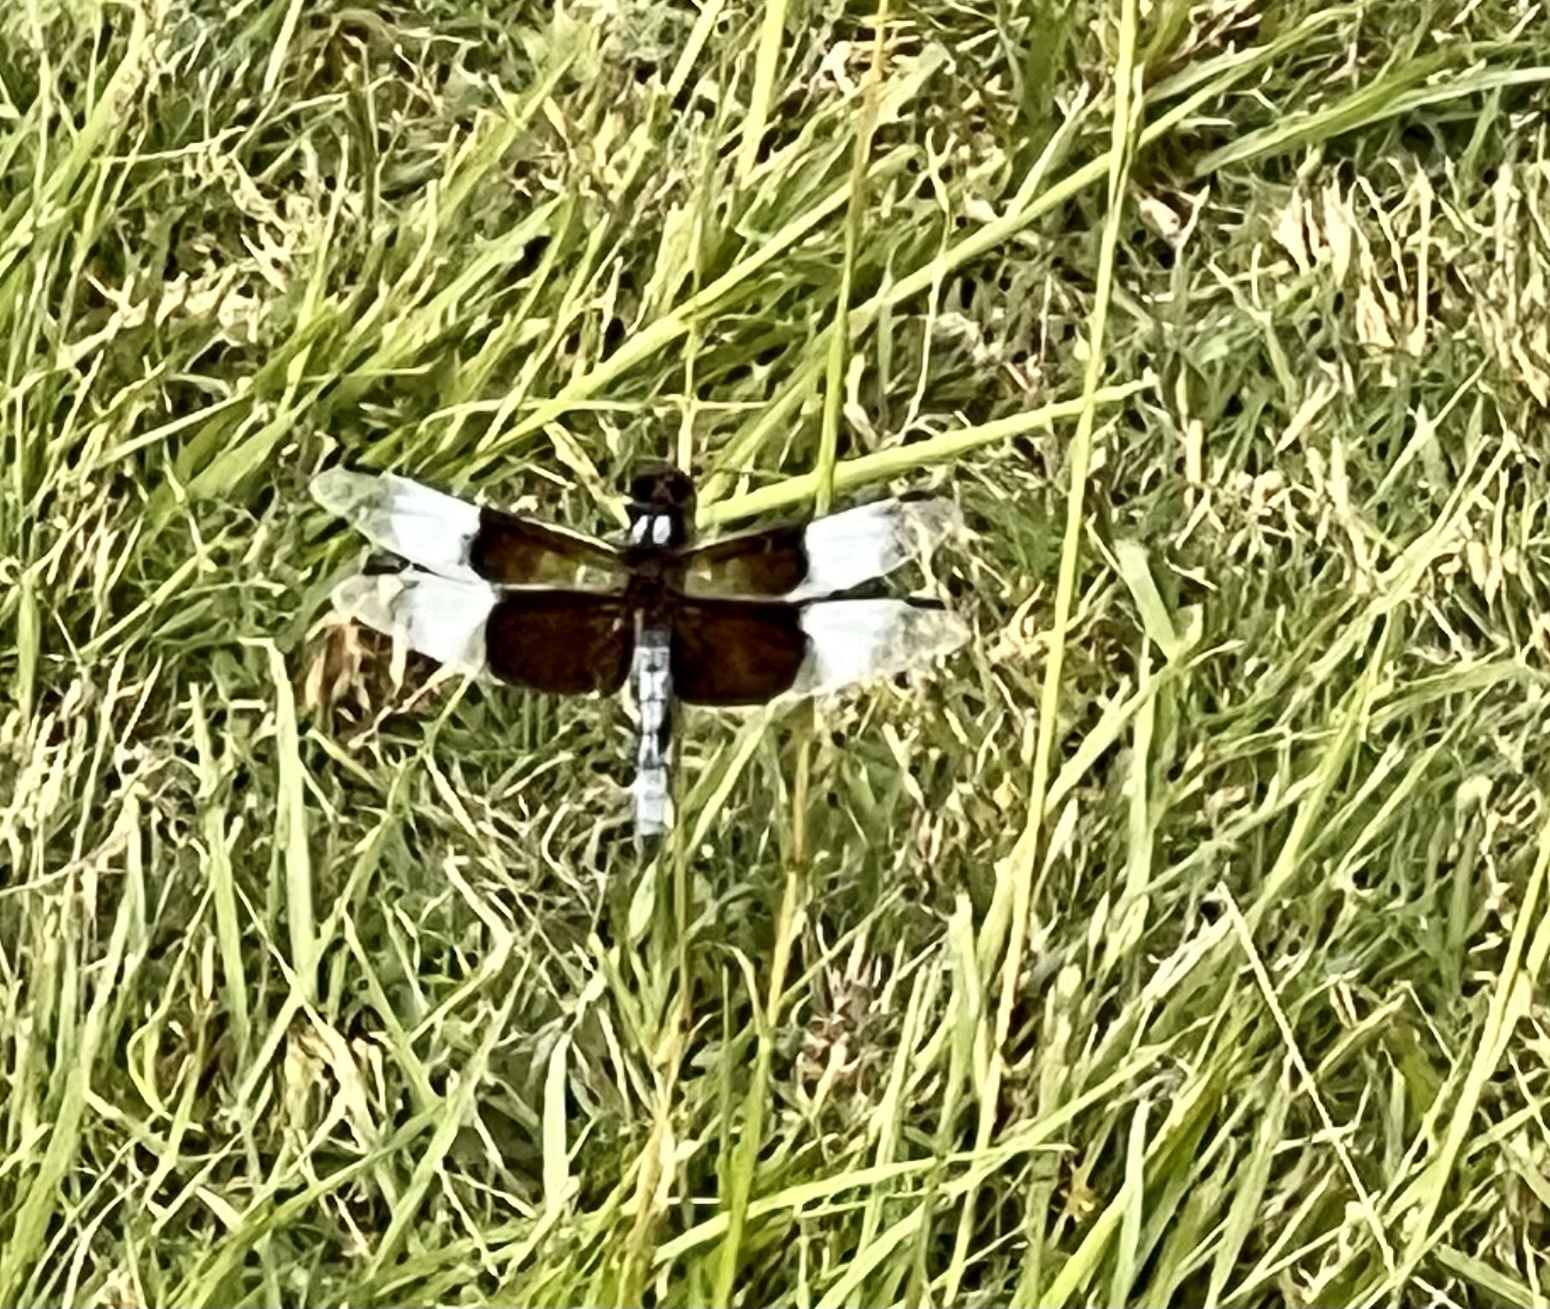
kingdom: Animalia
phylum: Arthropoda
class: Insecta
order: Odonata
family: Libellulidae
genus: Libellula
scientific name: Libellula luctuosa
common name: Widow skimmer
